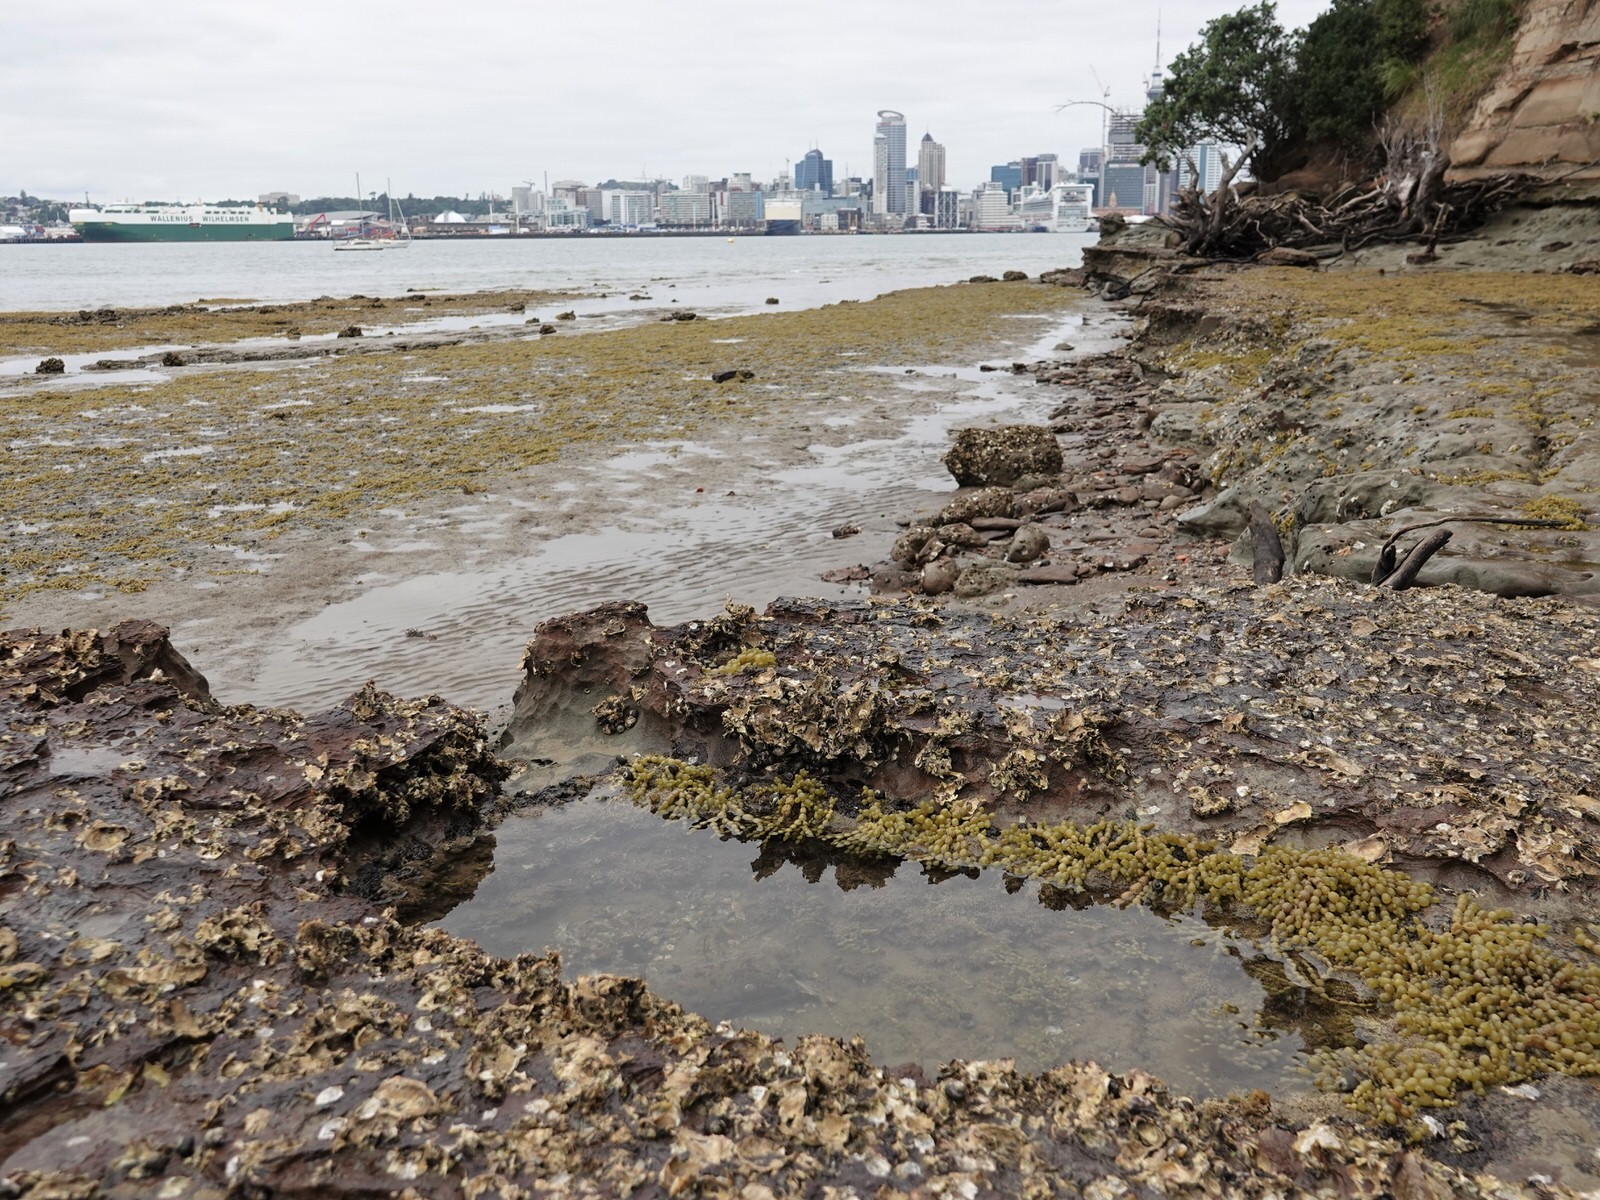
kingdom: Animalia
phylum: Annelida
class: Polychaeta
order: Sabellida
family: Sabellidae
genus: Sabella
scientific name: Sabella spallanzanii
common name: Feather duster worm
